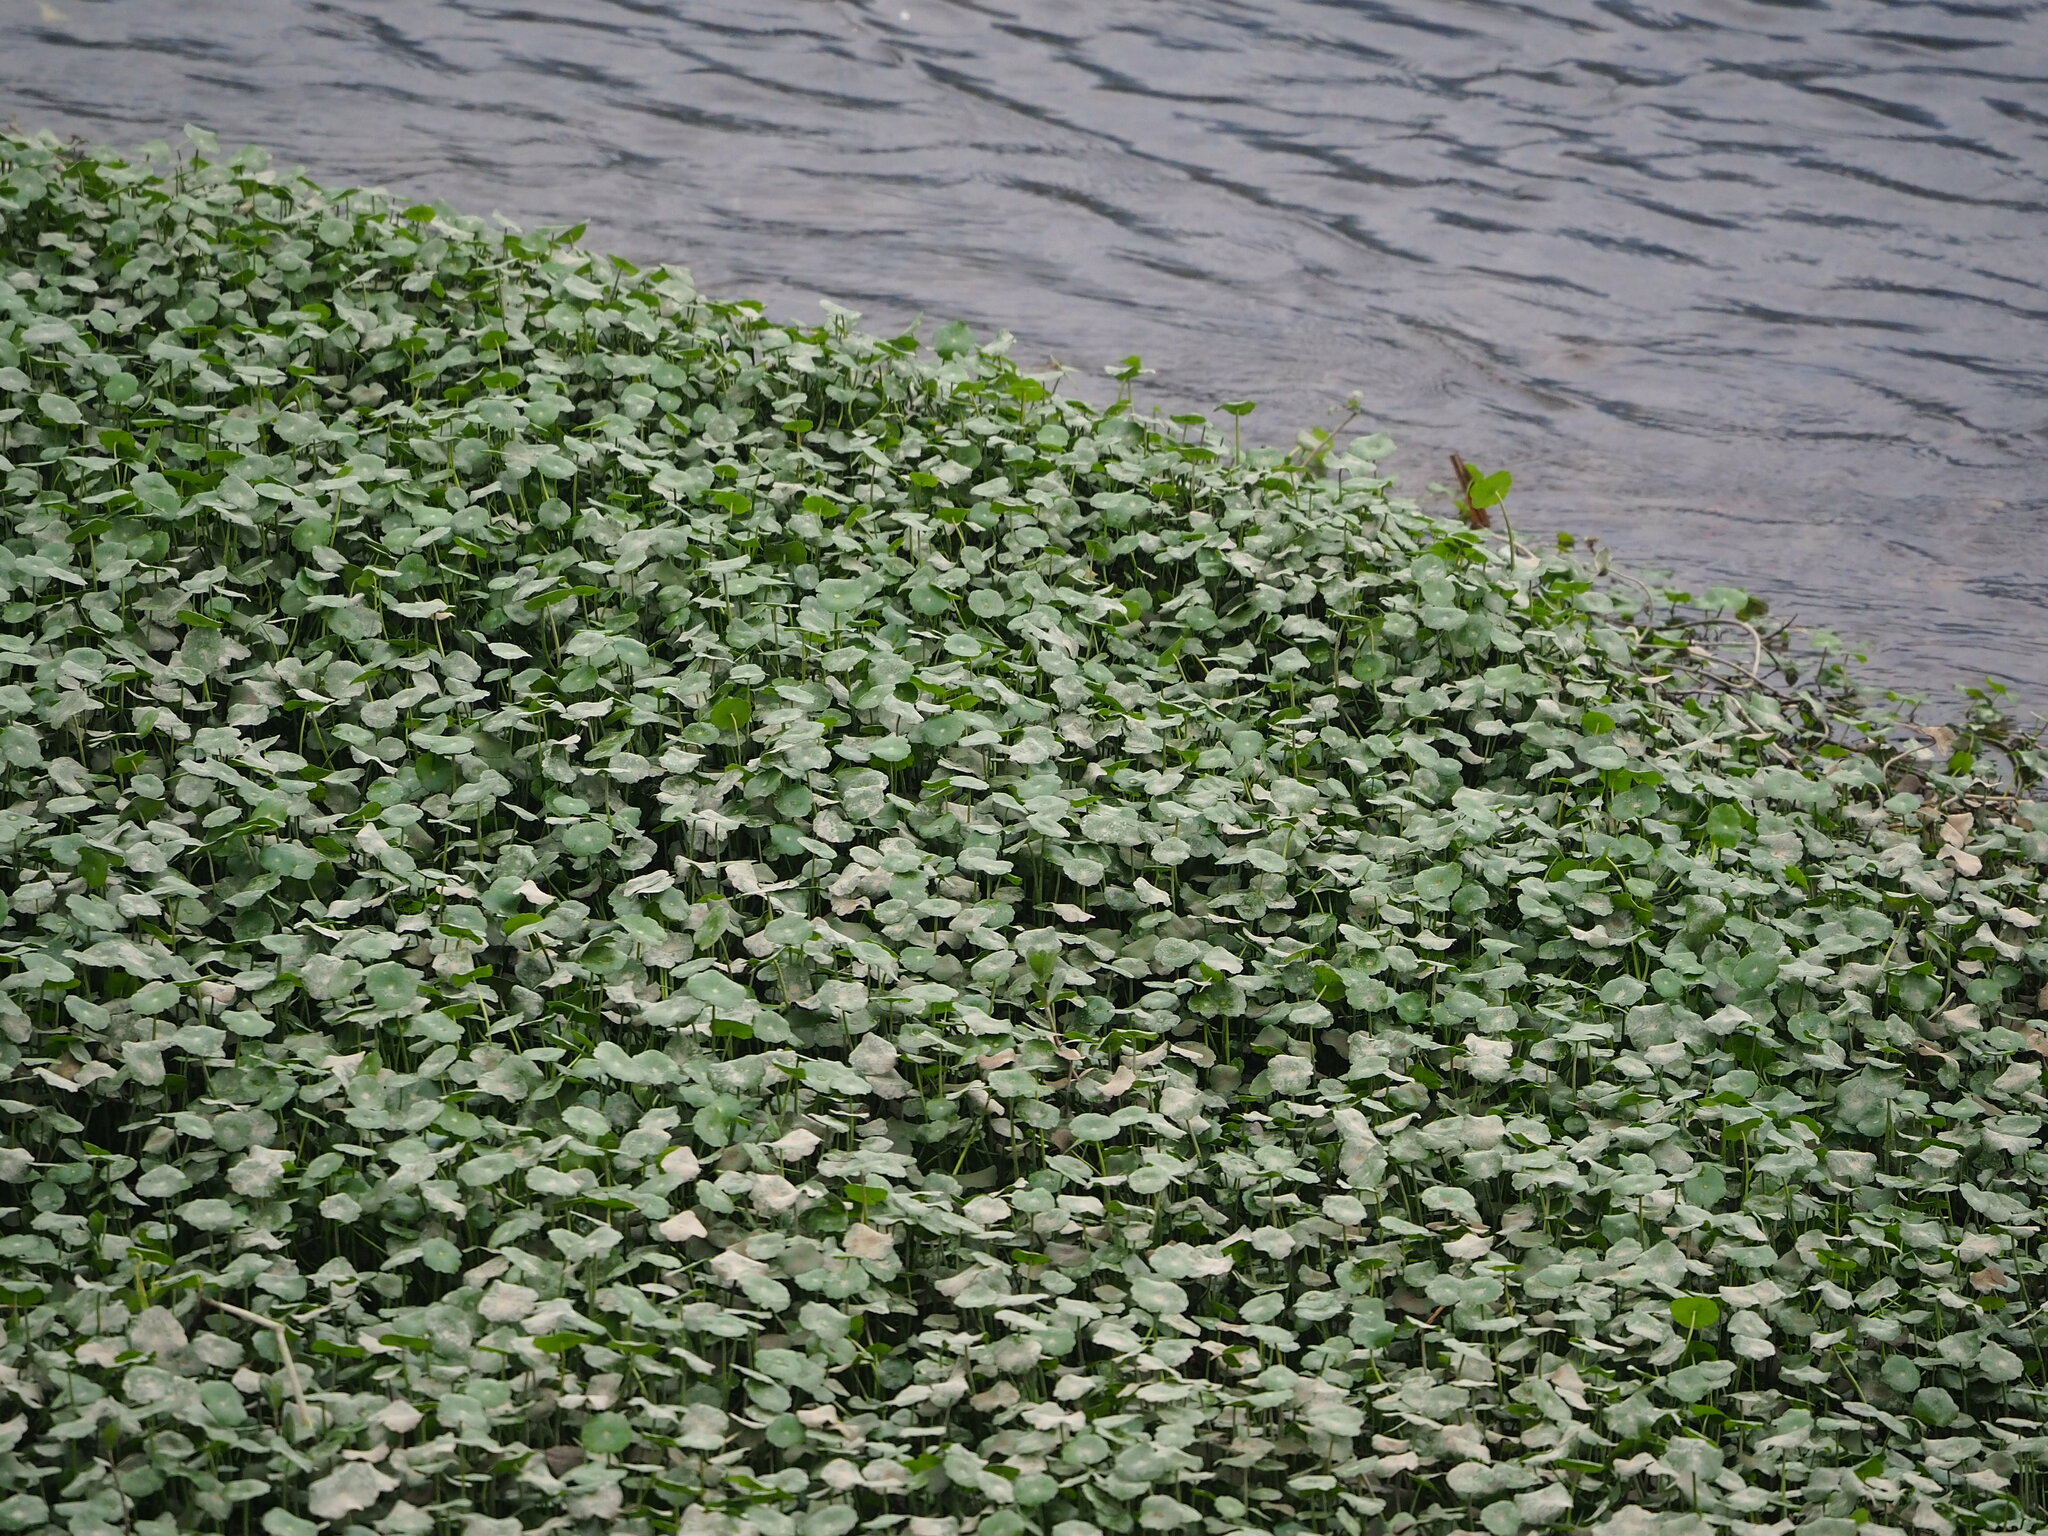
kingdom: Plantae
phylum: Tracheophyta
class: Magnoliopsida
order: Apiales
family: Araliaceae
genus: Hydrocotyle
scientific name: Hydrocotyle verticillata
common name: Whorled marshpennywort
